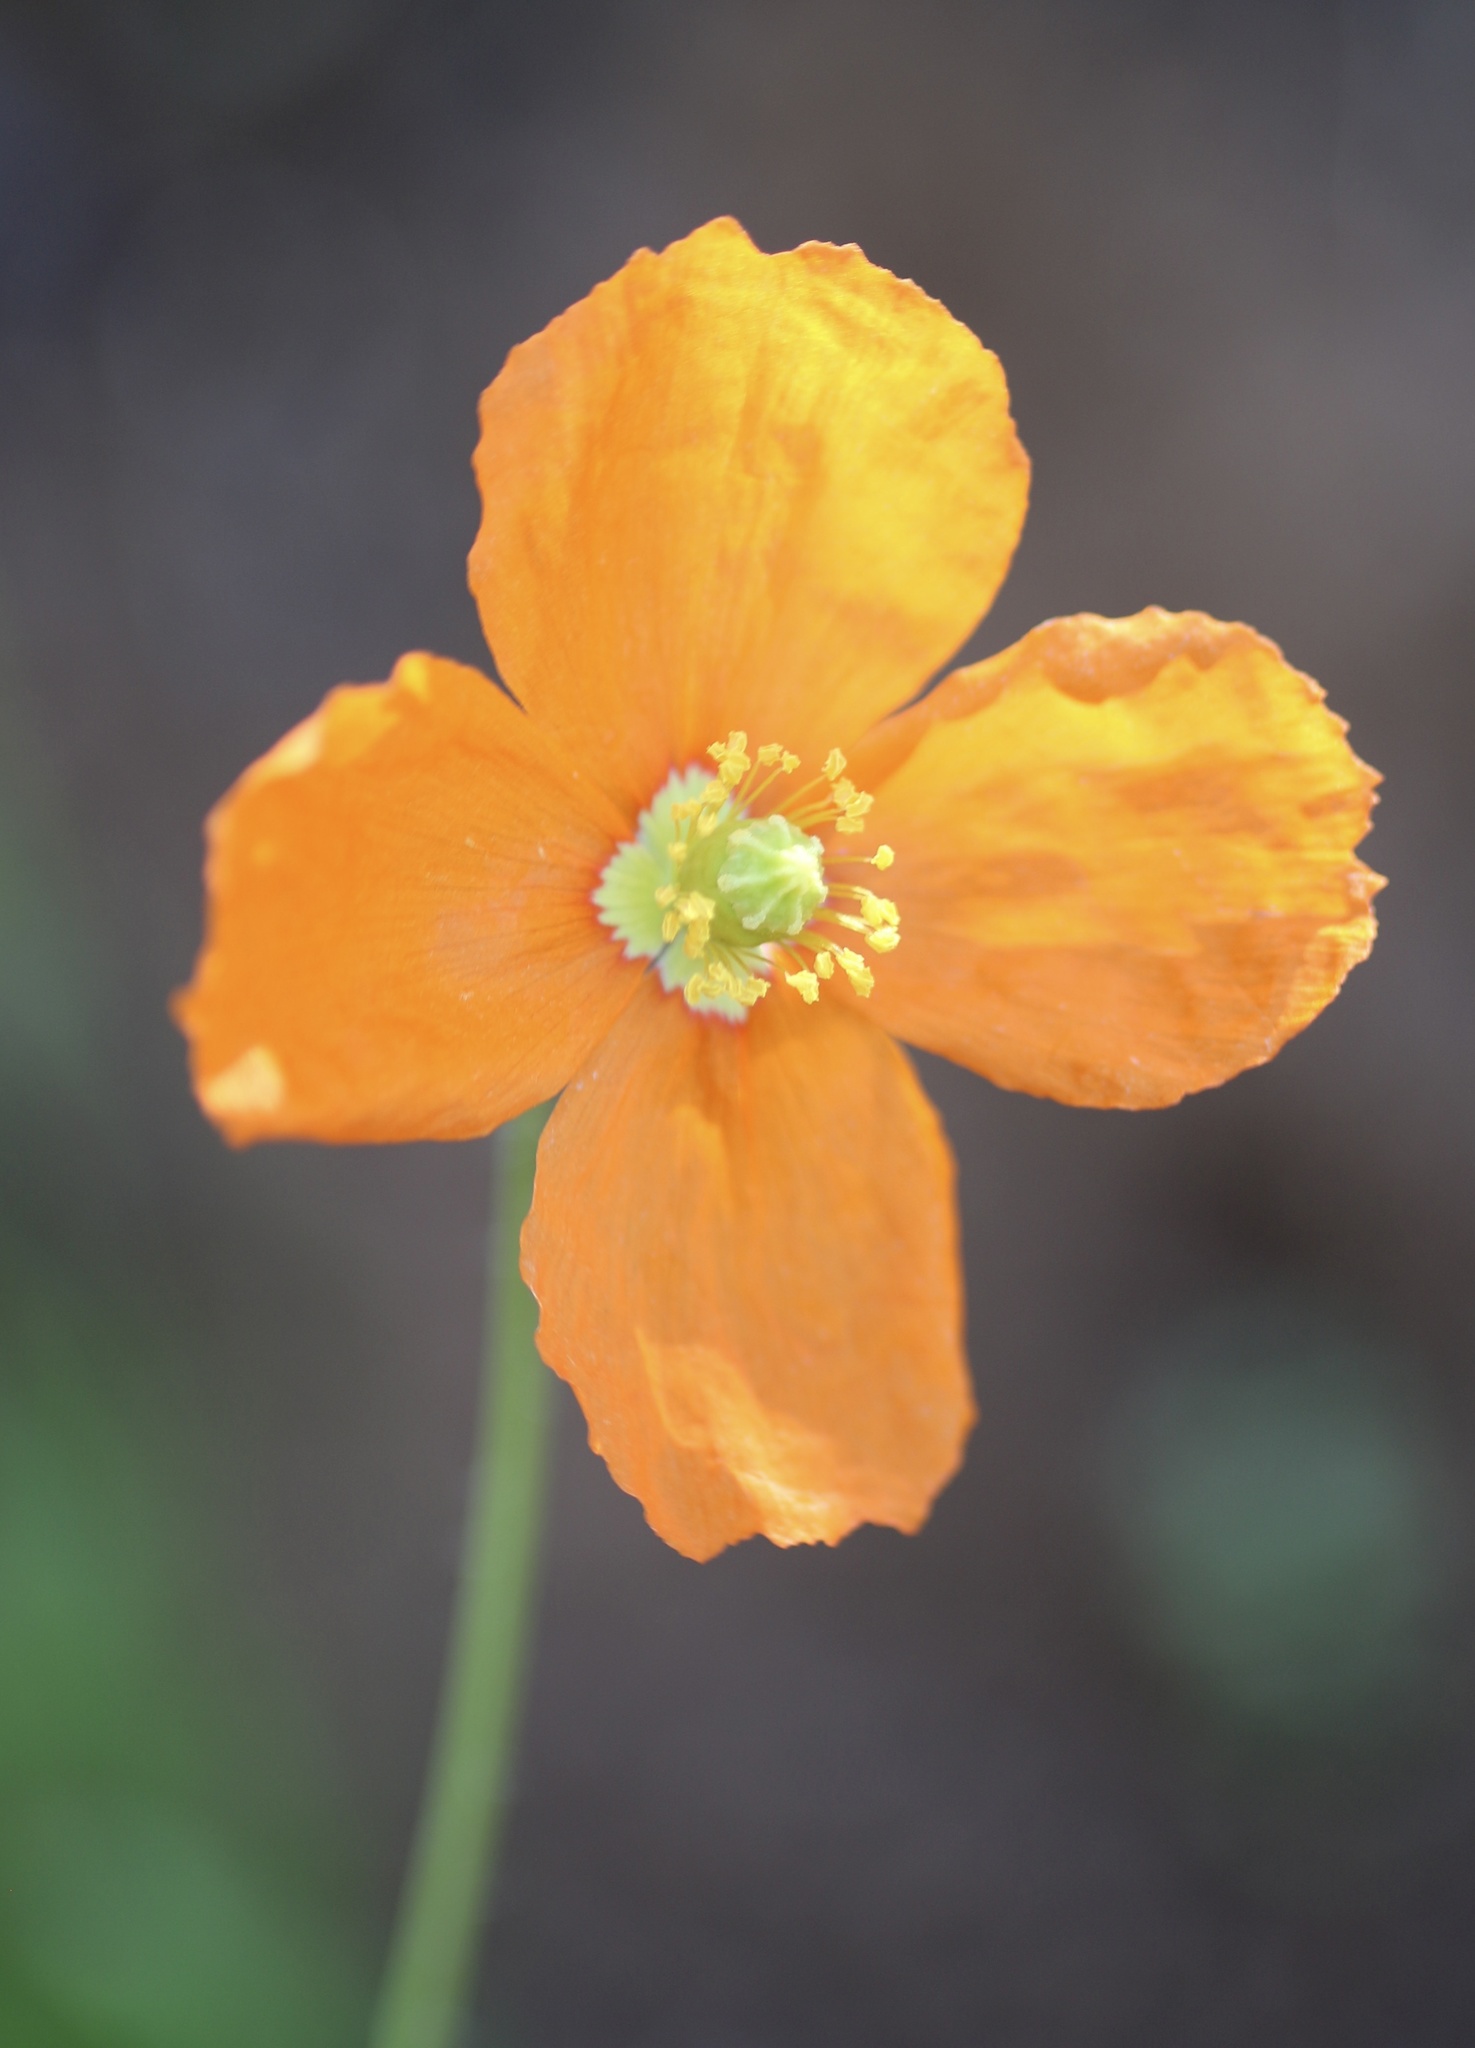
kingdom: Plantae
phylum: Tracheophyta
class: Magnoliopsida
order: Ranunculales
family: Papaveraceae
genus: Papaver
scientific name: Papaver californicum
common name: Fire poppy
